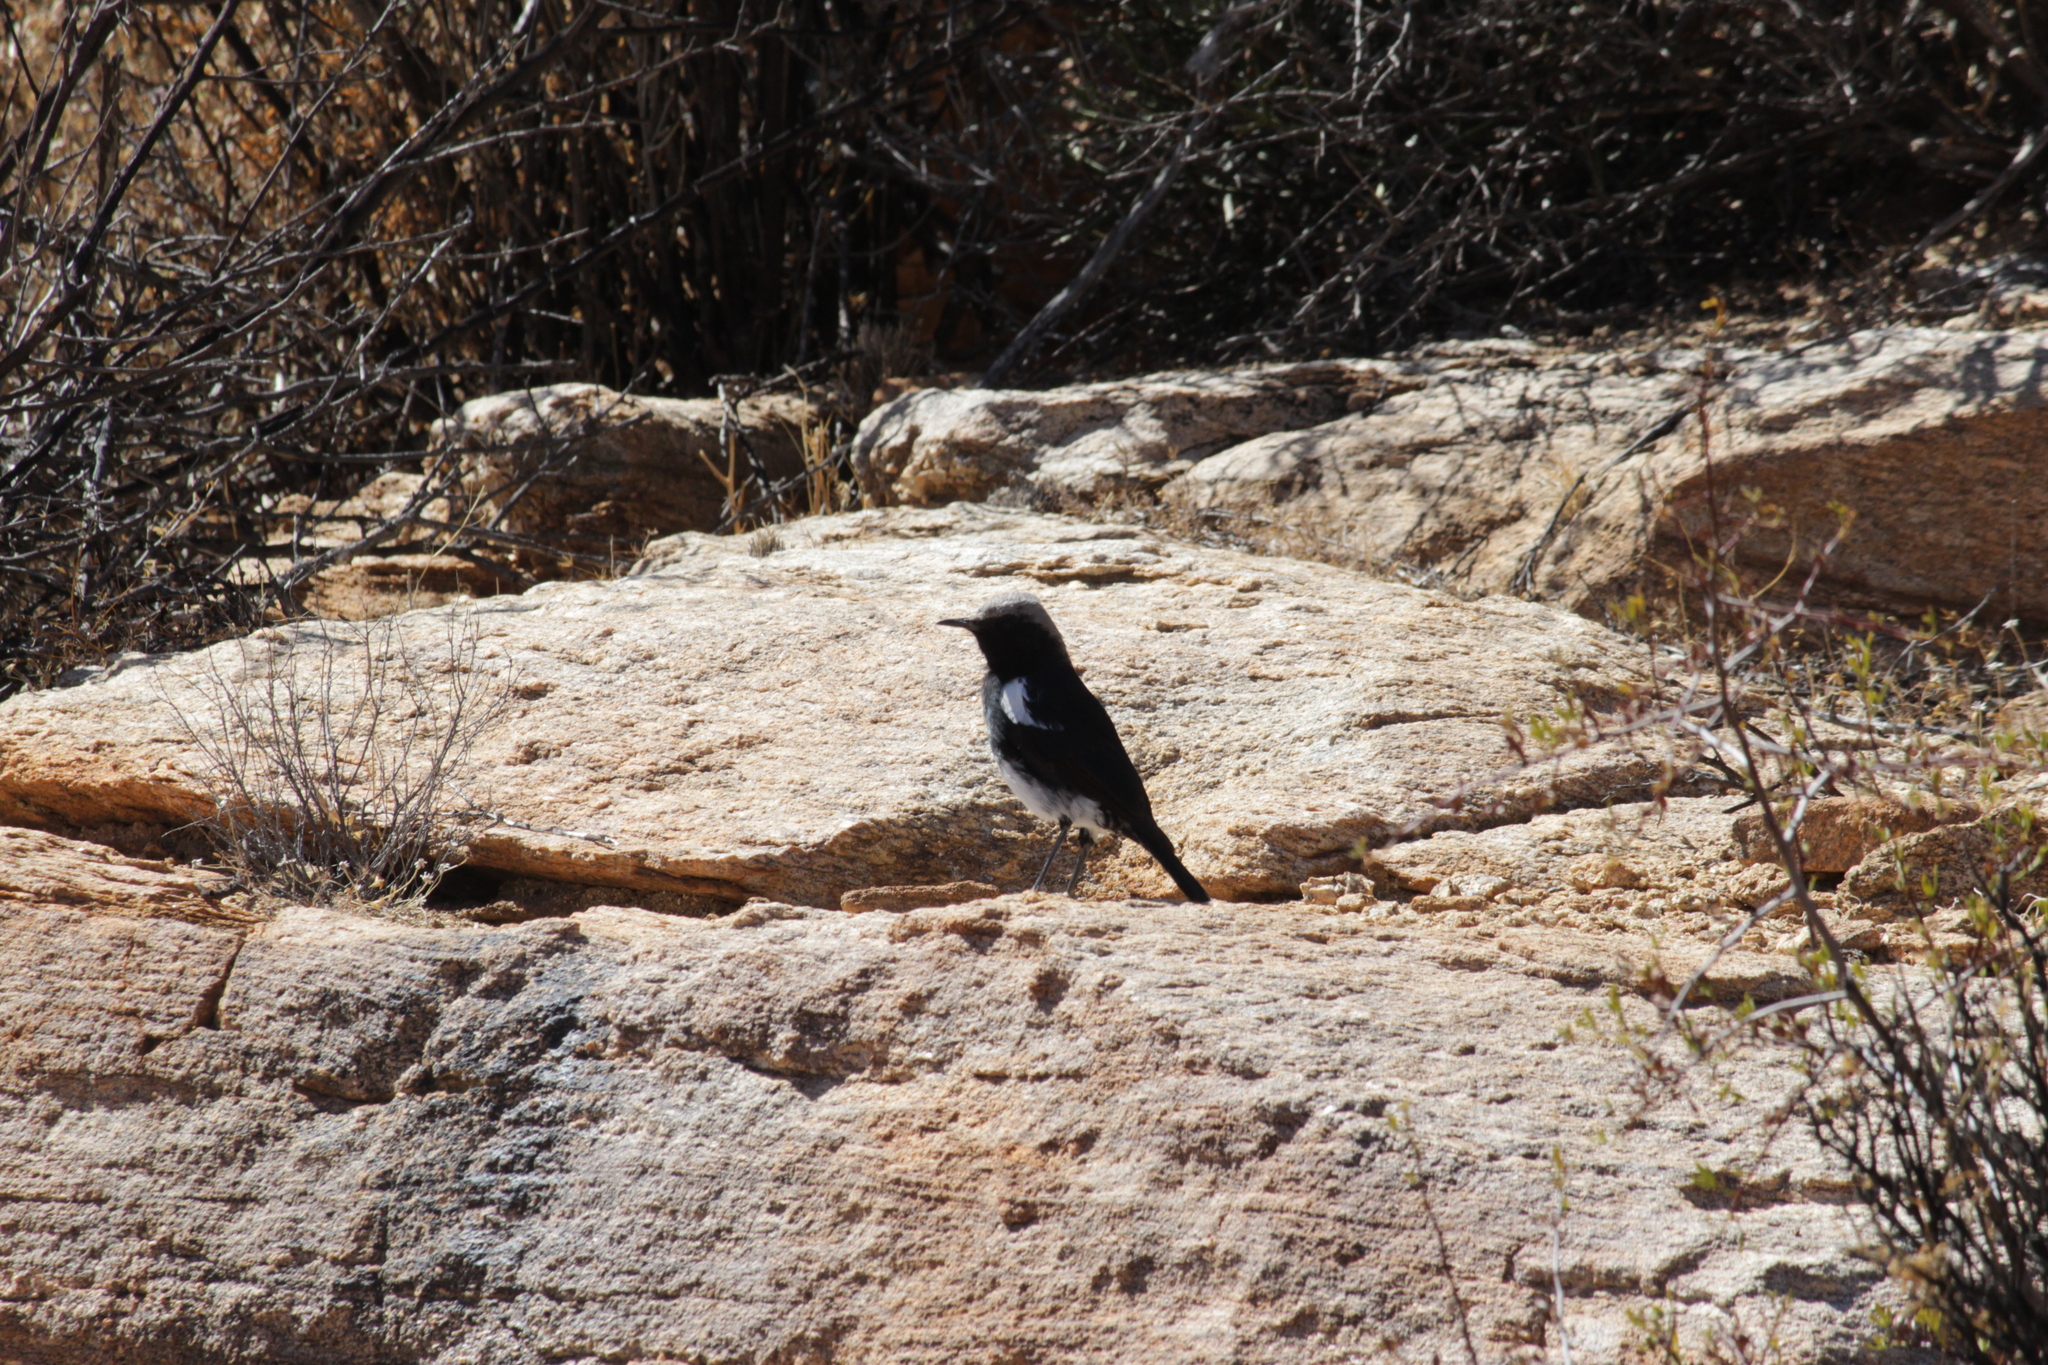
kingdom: Animalia
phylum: Chordata
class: Aves
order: Passeriformes
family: Muscicapidae
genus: Oenanthe
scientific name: Oenanthe monticola
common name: Mountain wheatear
